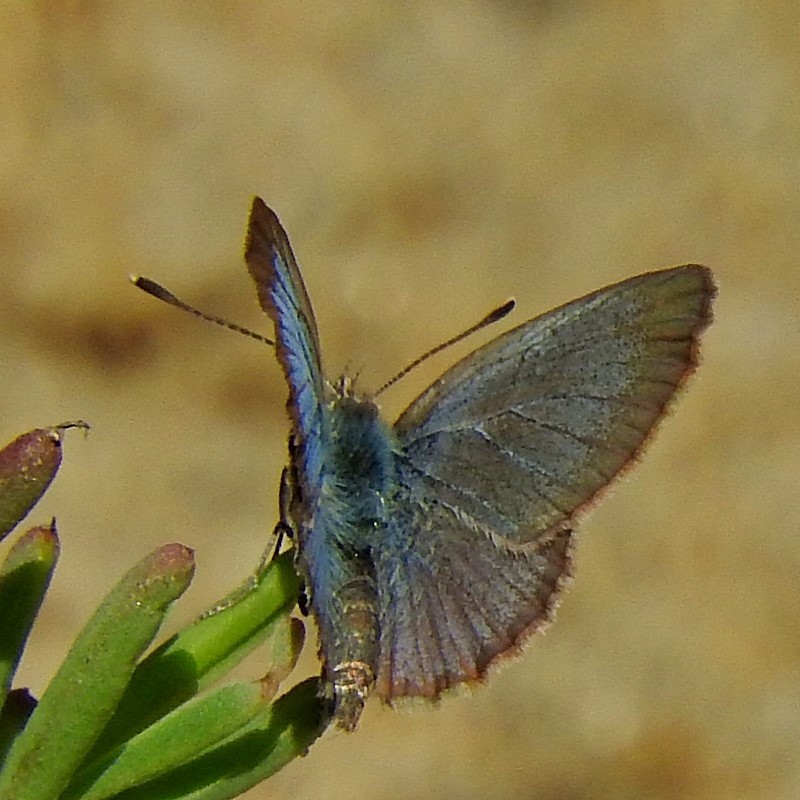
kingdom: Animalia
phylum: Arthropoda
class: Insecta
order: Lepidoptera
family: Lycaenidae
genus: Zizina
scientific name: Zizina labradus
